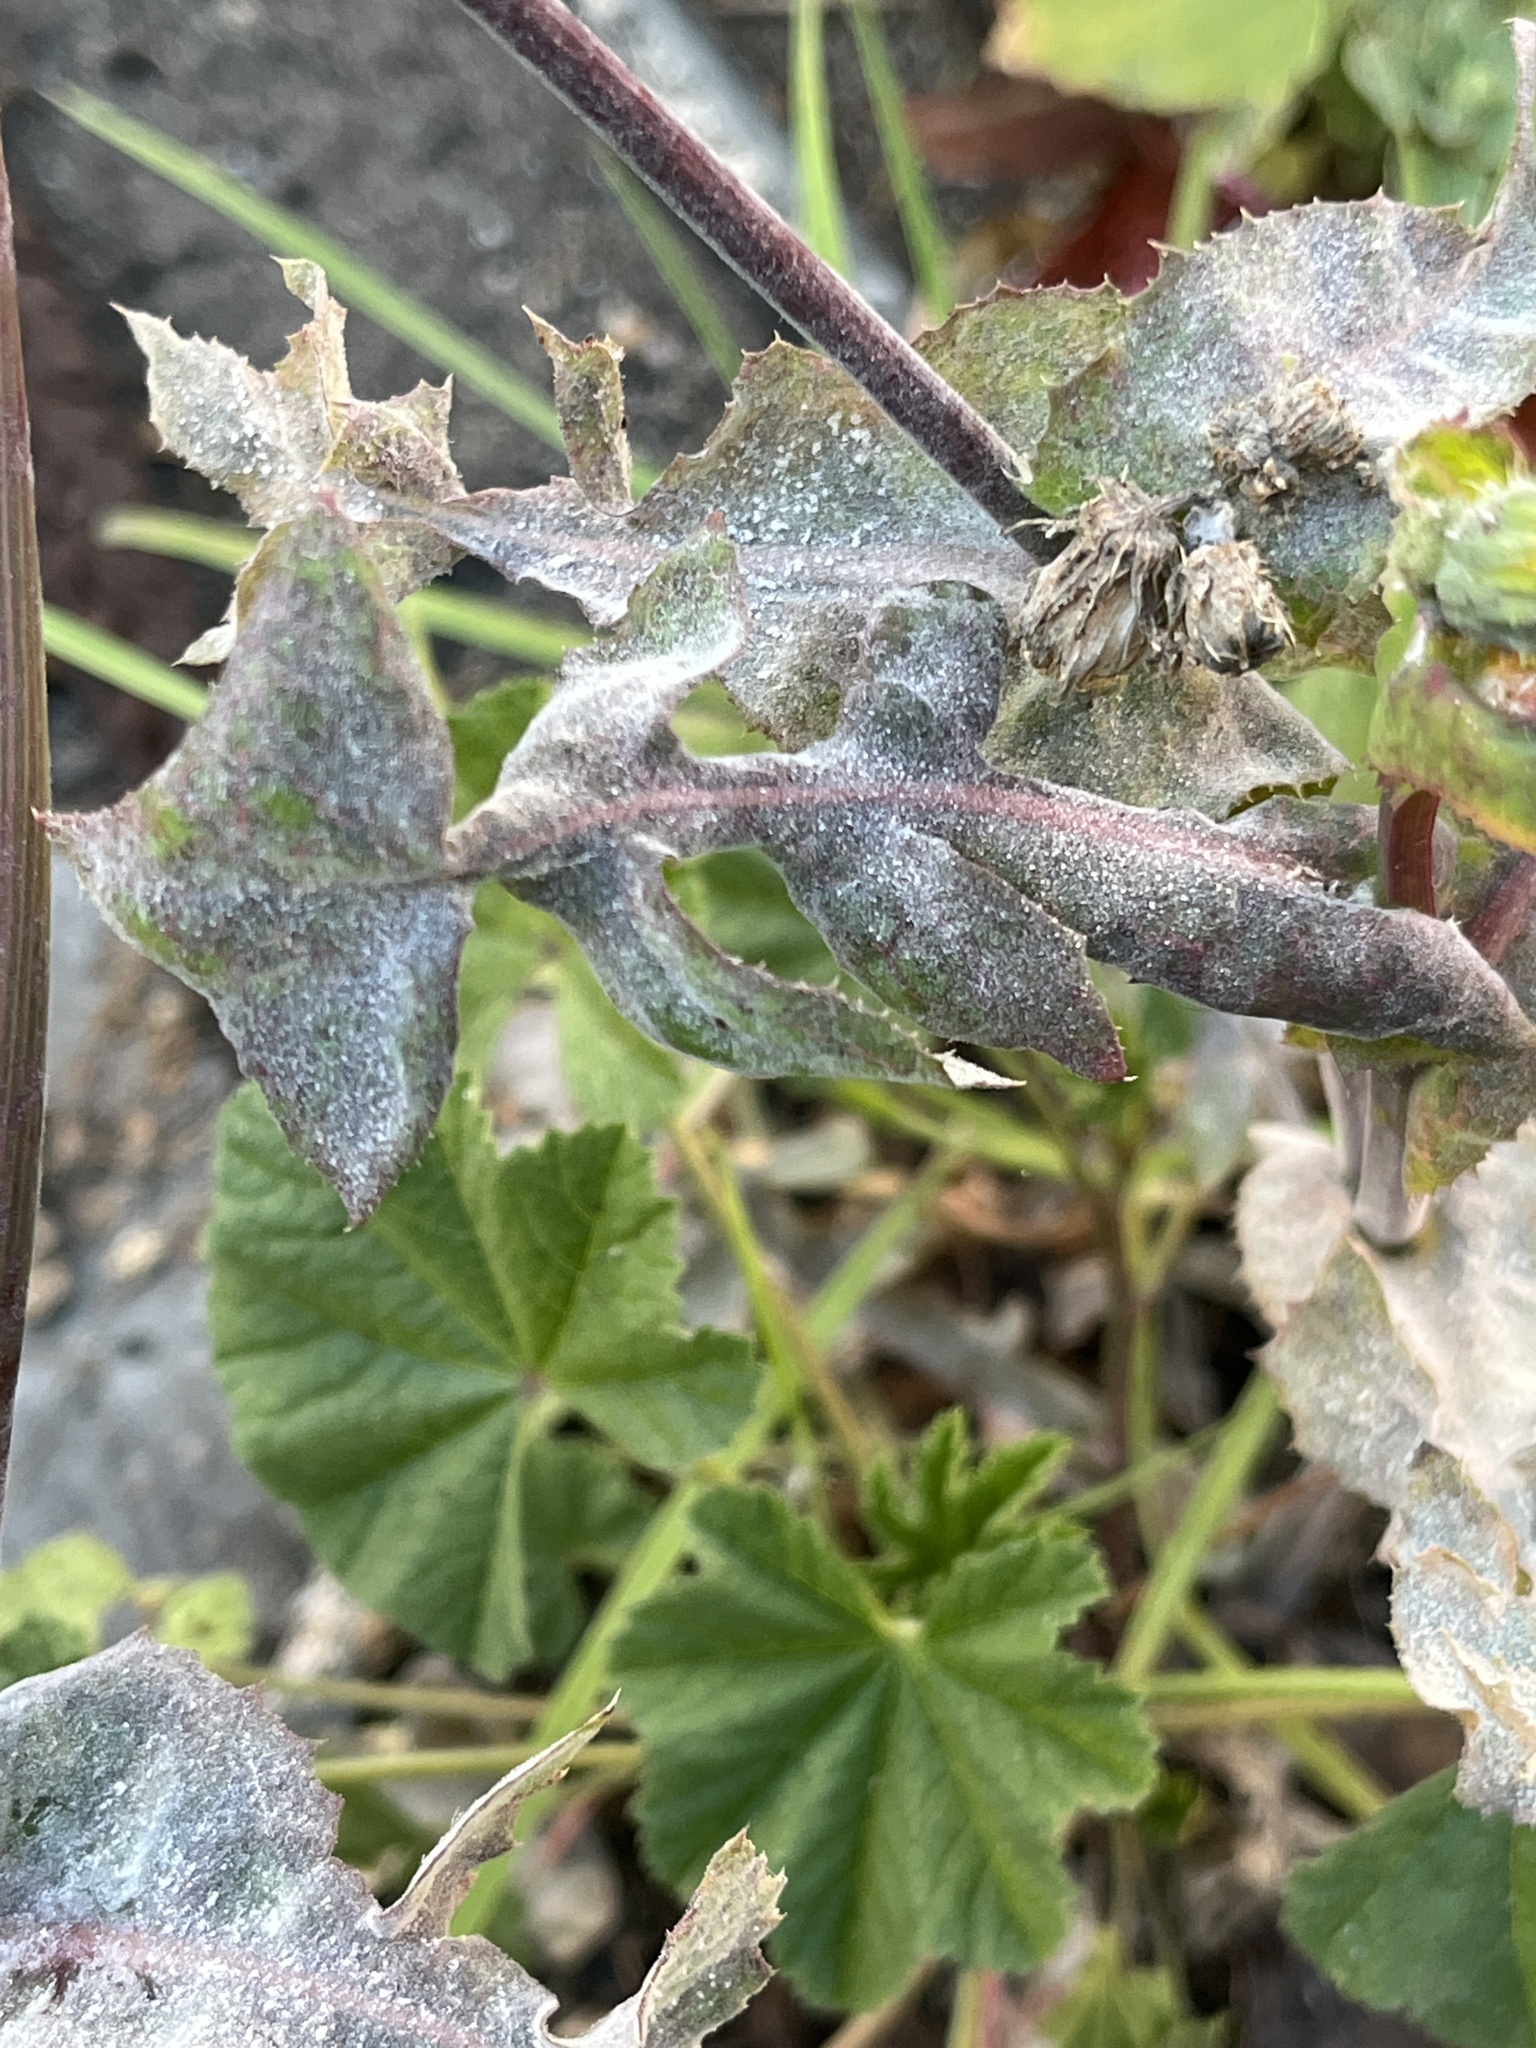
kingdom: Plantae
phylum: Tracheophyta
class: Magnoliopsida
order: Asterales
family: Asteraceae
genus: Sonchus
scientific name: Sonchus oleraceus
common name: Common sowthistle
